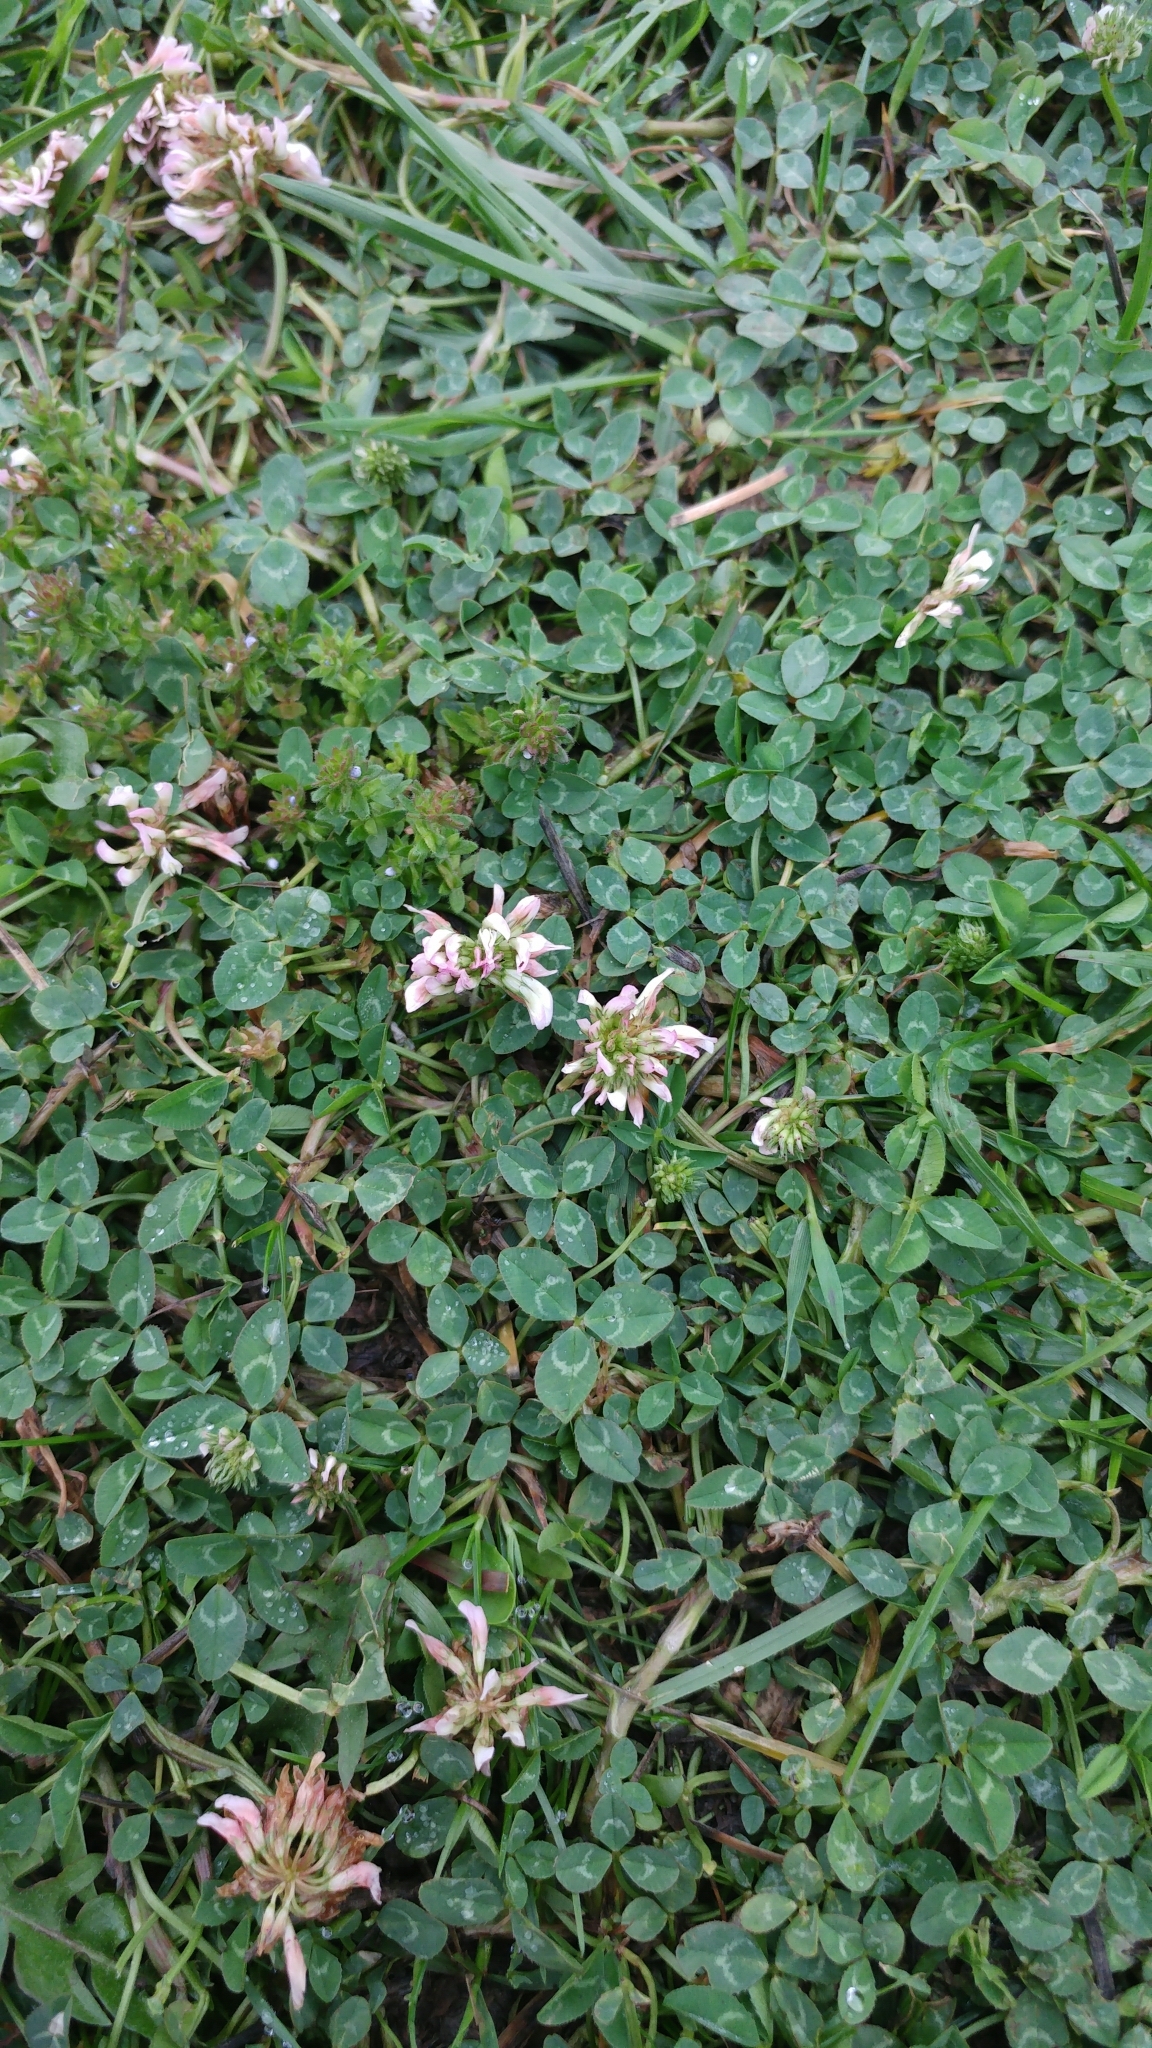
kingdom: Plantae
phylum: Tracheophyta
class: Magnoliopsida
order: Fabales
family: Fabaceae
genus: Trifolium
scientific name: Trifolium repens
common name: White clover
